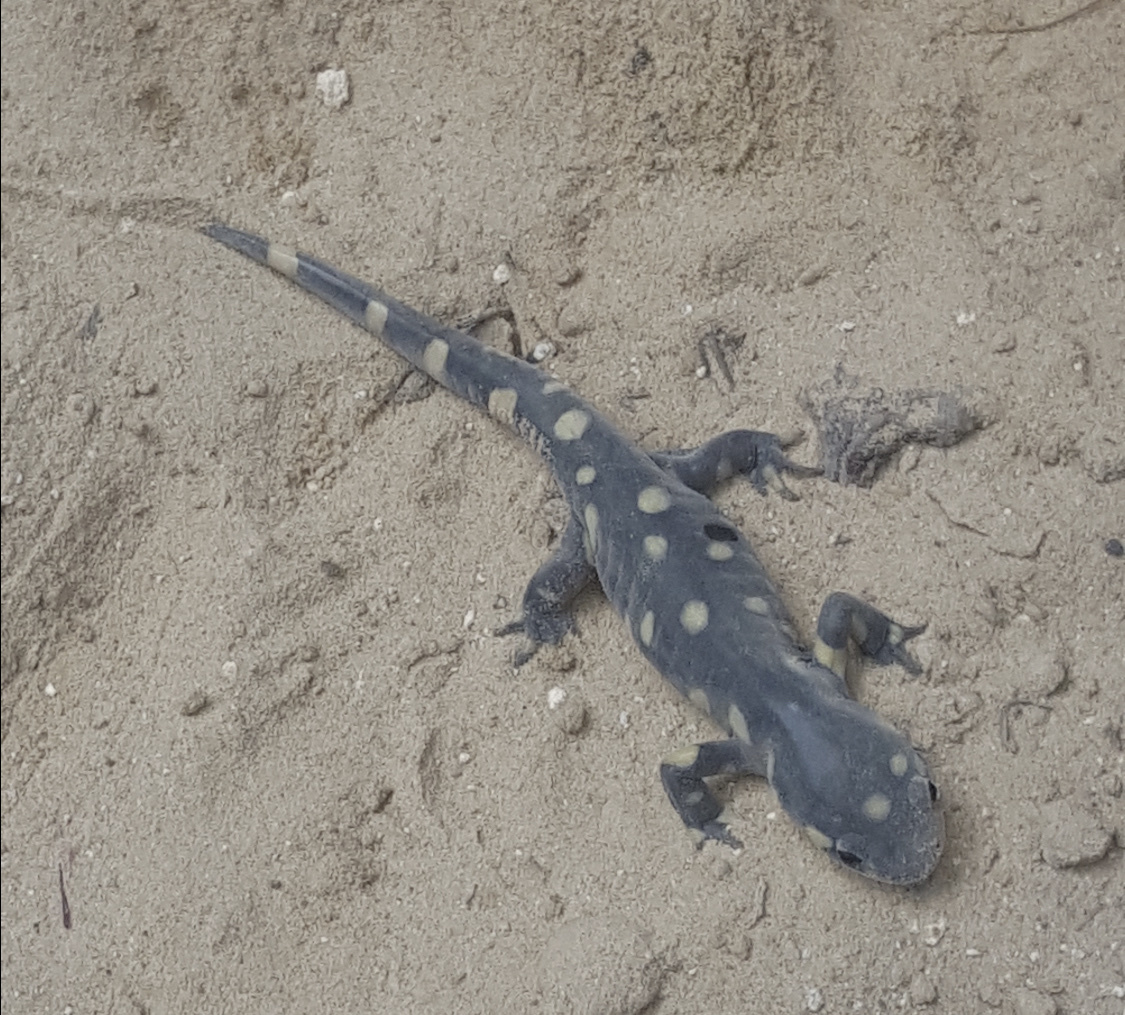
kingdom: Animalia
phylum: Chordata
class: Amphibia
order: Caudata
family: Ambystomatidae
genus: Ambystoma
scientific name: Ambystoma tigrinum
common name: Tiger salamander
